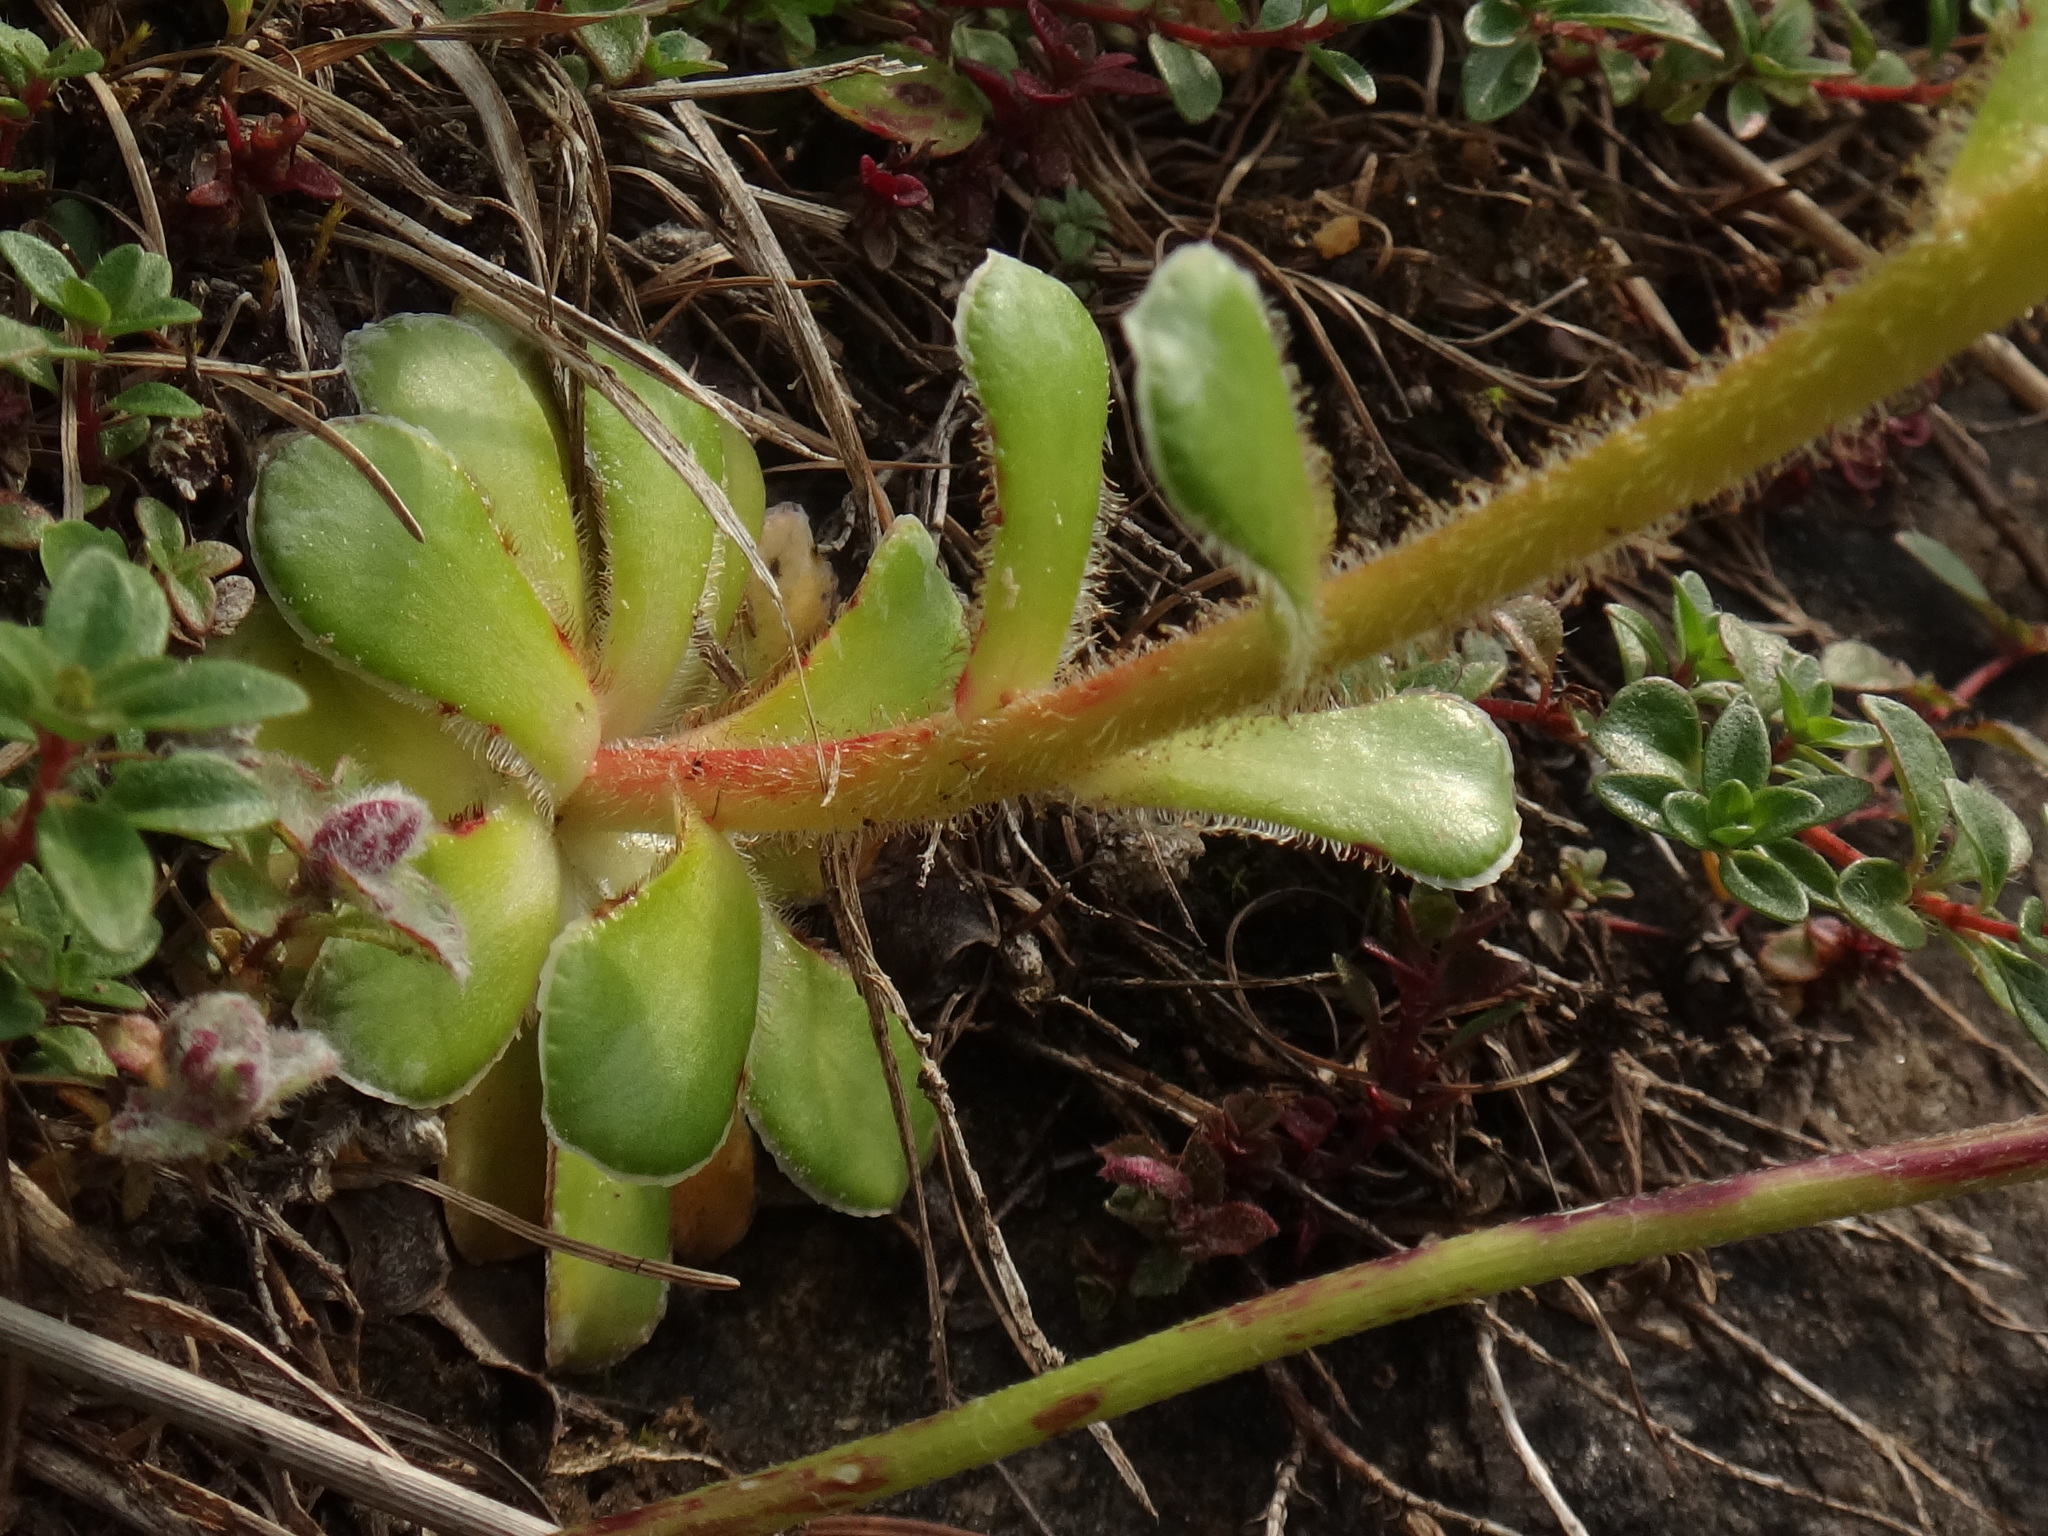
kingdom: Plantae
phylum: Tracheophyta
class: Magnoliopsida
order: Saxifragales
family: Saxifragaceae
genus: Saxifraga
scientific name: Saxifraga mutata
